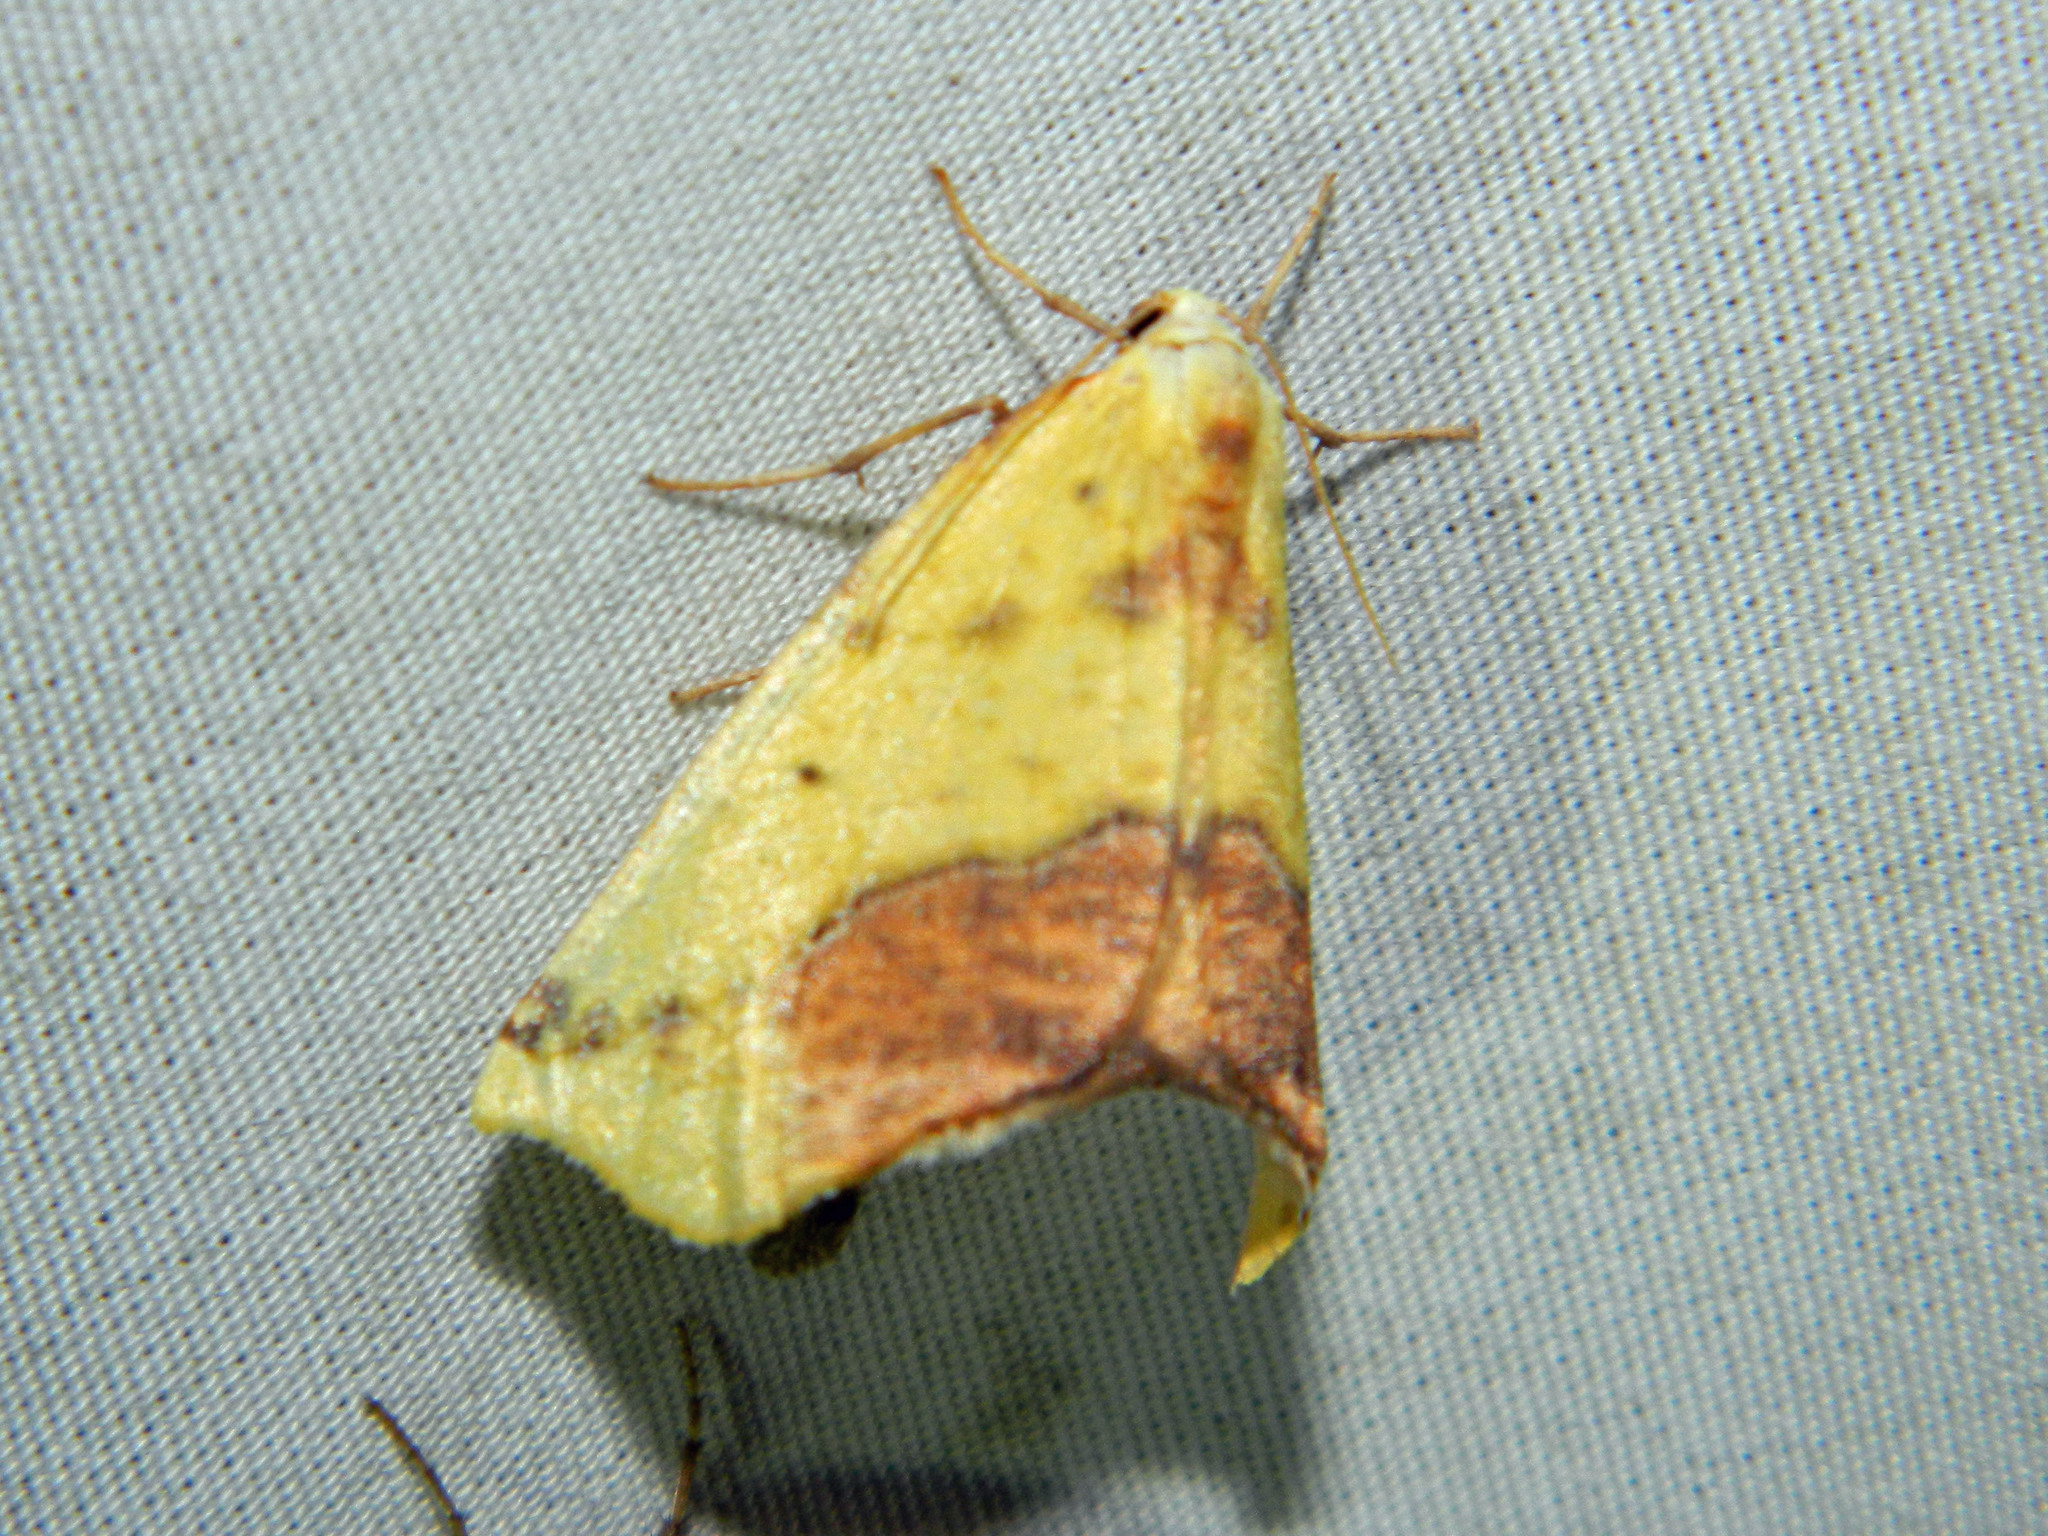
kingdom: Animalia
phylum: Arthropoda
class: Insecta
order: Lepidoptera
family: Geometridae
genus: Sicya
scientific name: Sicya macularia
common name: Sharp-lined yellow
